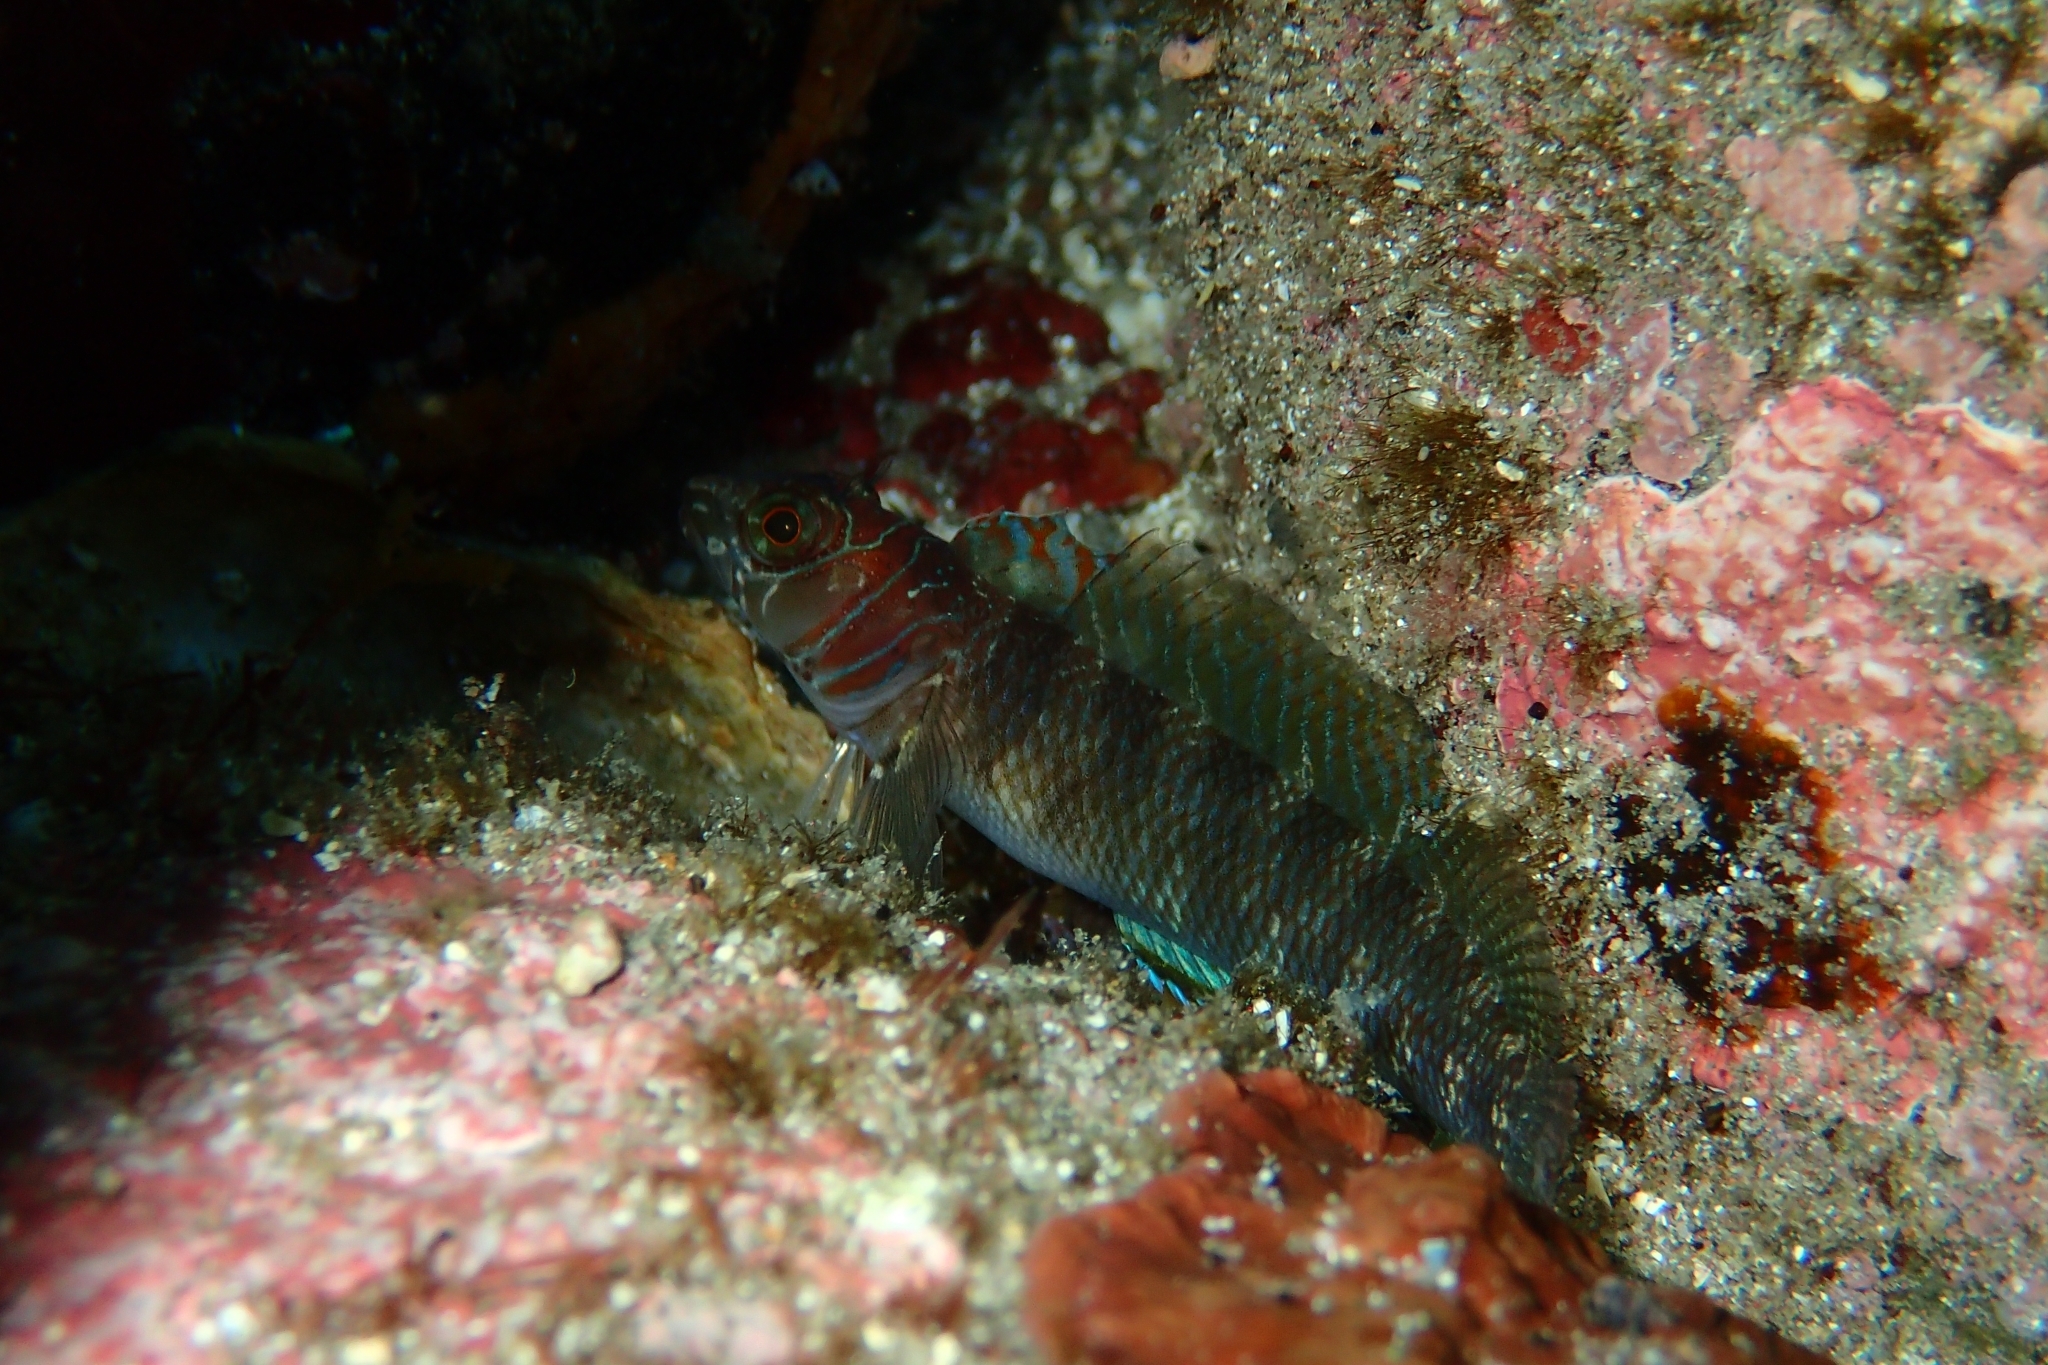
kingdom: Animalia
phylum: Chordata
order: Perciformes
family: Tripterygiidae
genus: Ruanoho
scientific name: Ruanoho whero
